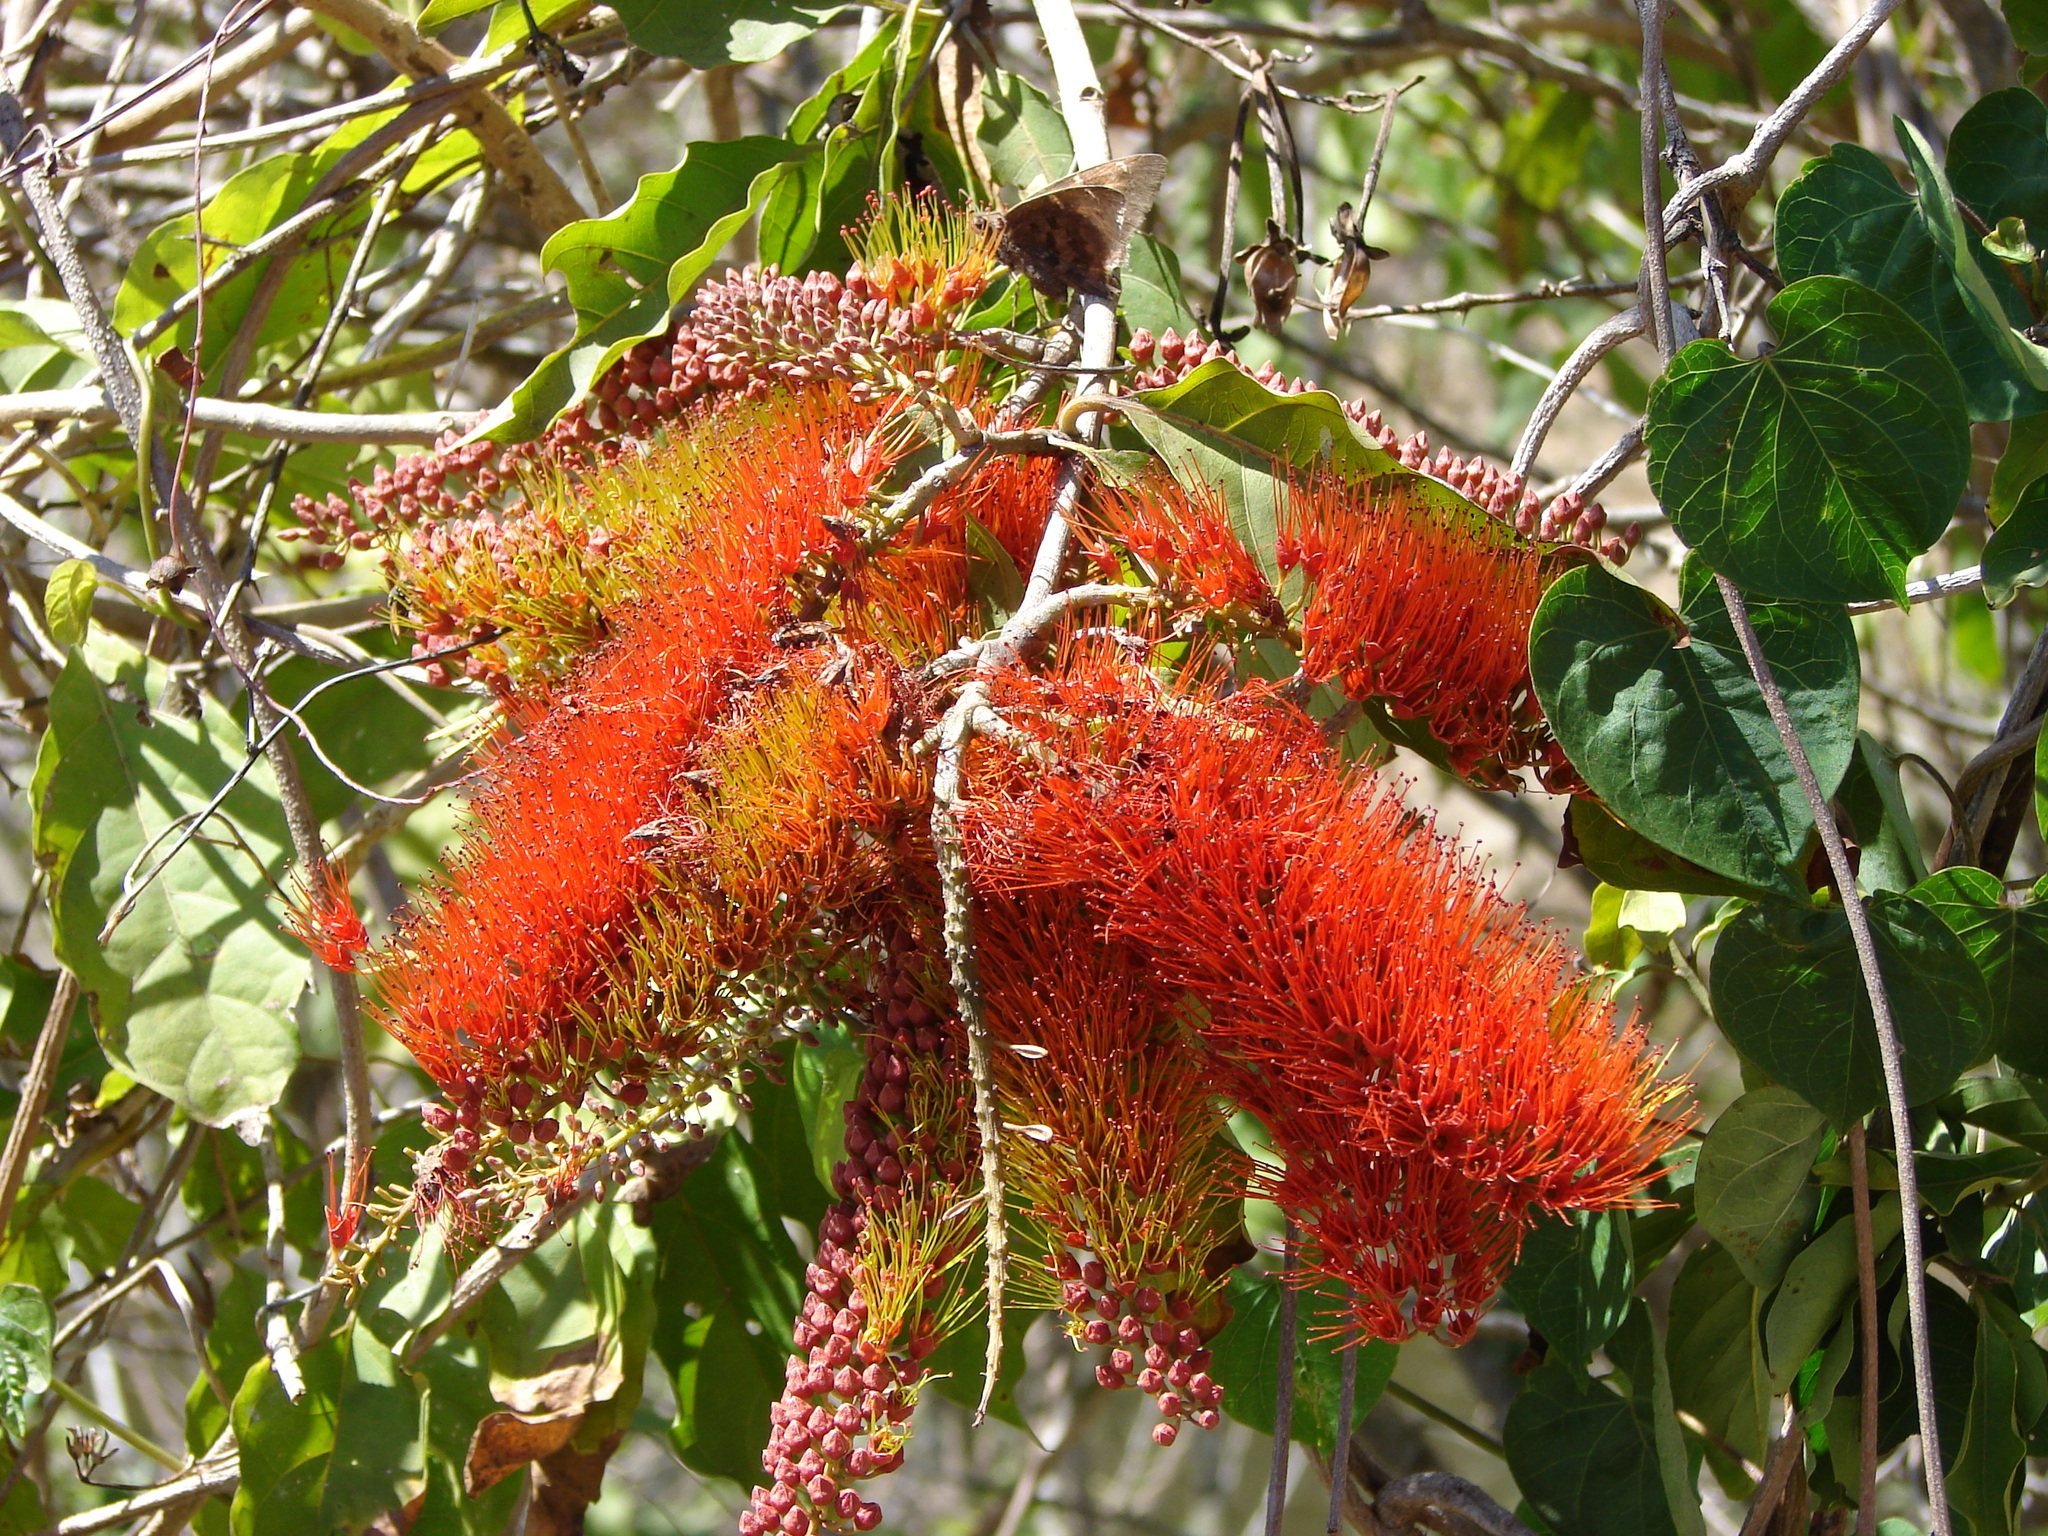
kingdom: Plantae
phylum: Tracheophyta
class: Magnoliopsida
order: Myrtales
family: Combretaceae
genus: Combretum
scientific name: Combretum farinosum
